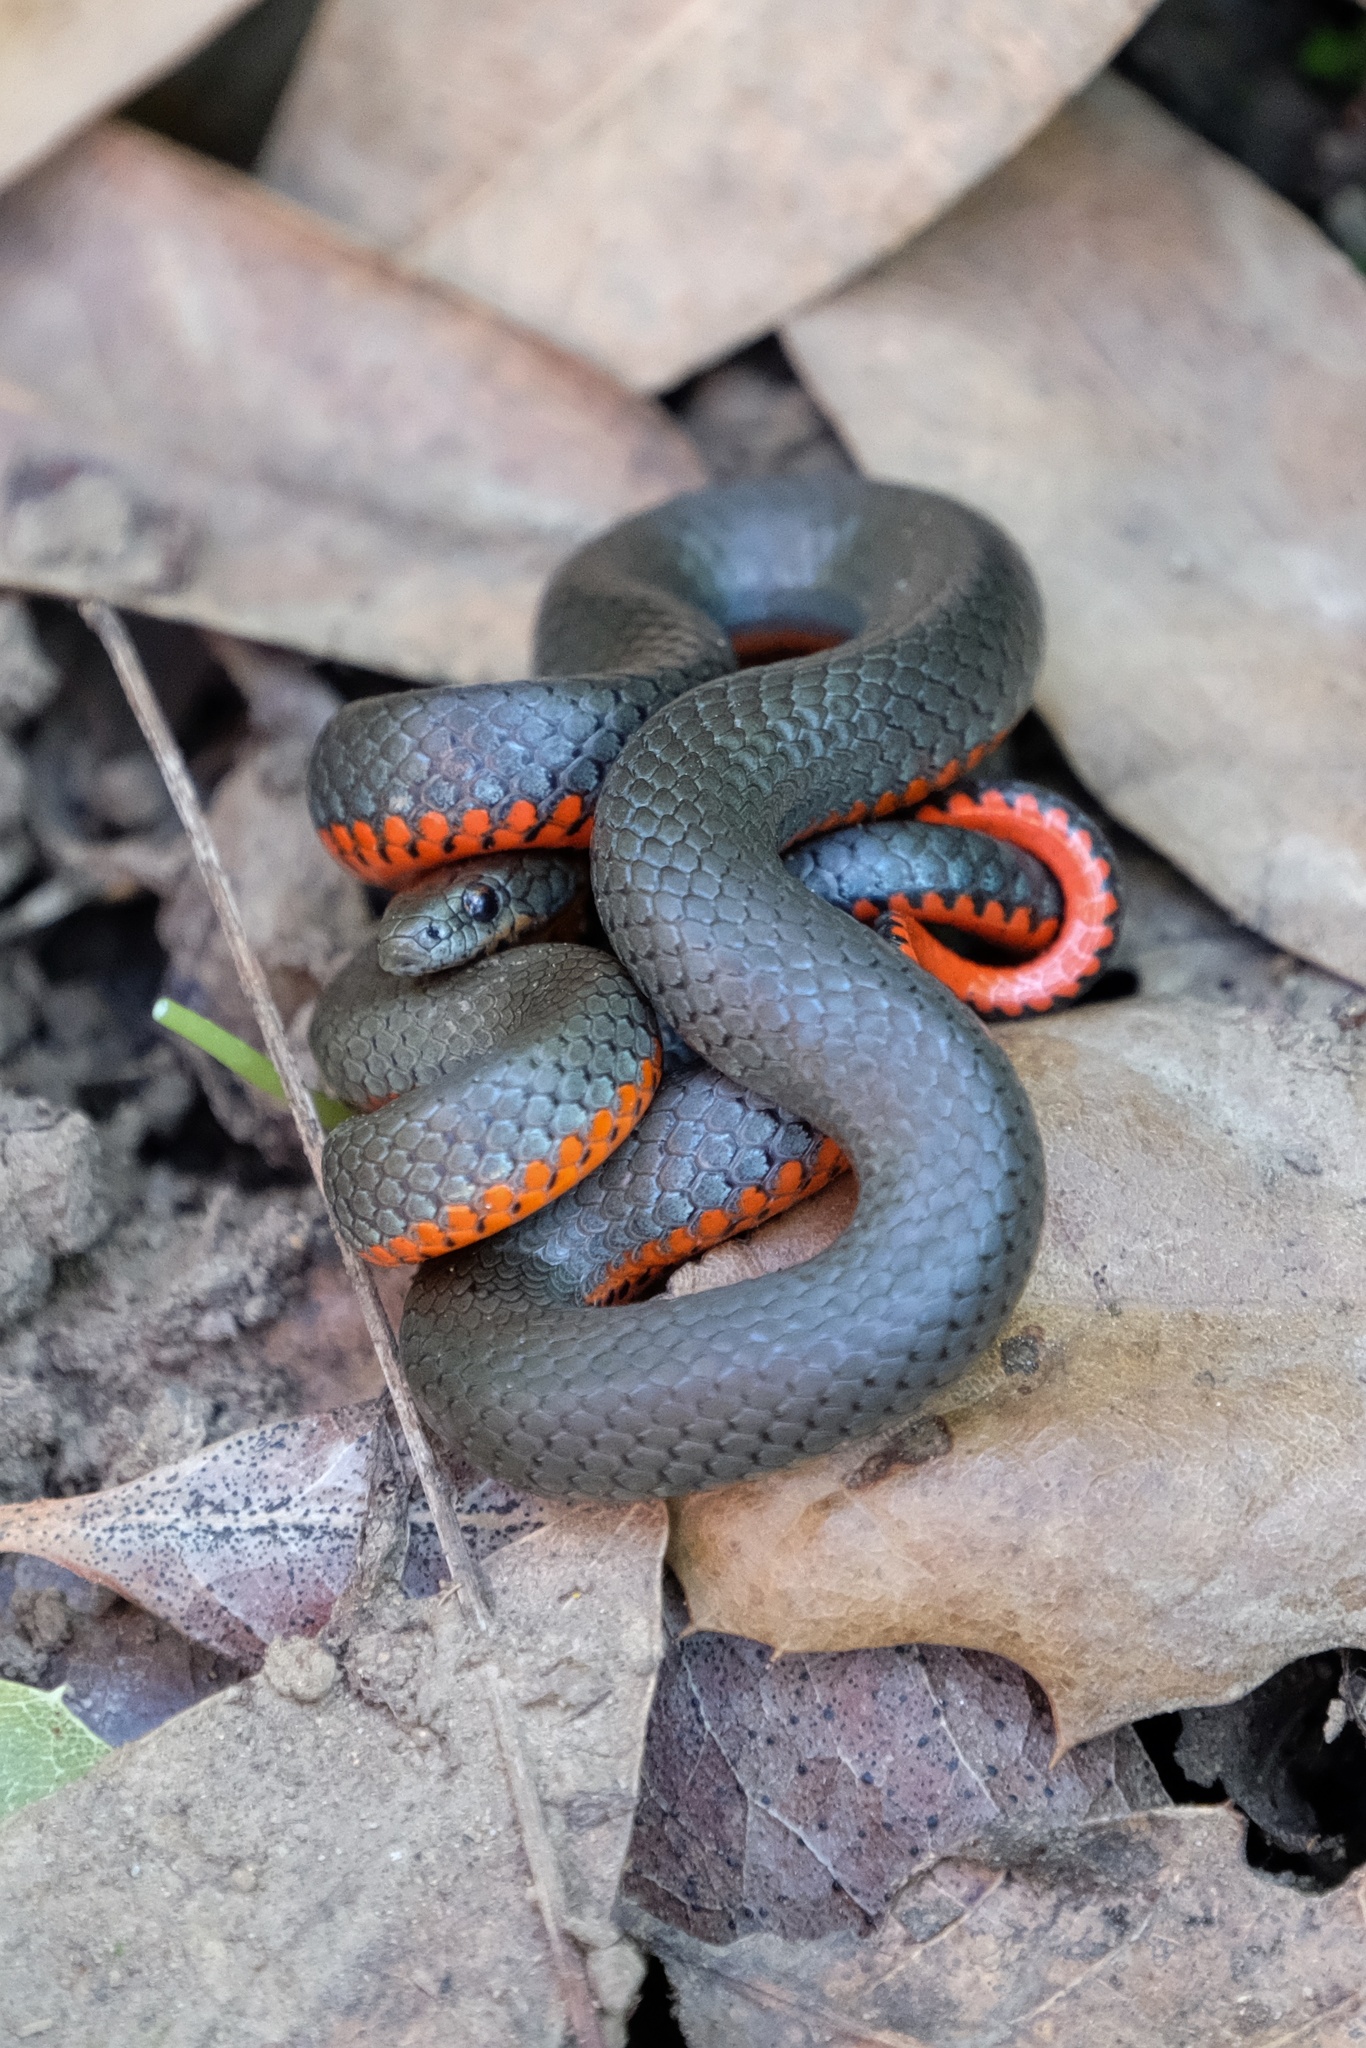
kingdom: Animalia
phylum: Chordata
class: Squamata
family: Colubridae
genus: Diadophis
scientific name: Diadophis punctatus
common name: Ringneck snake
